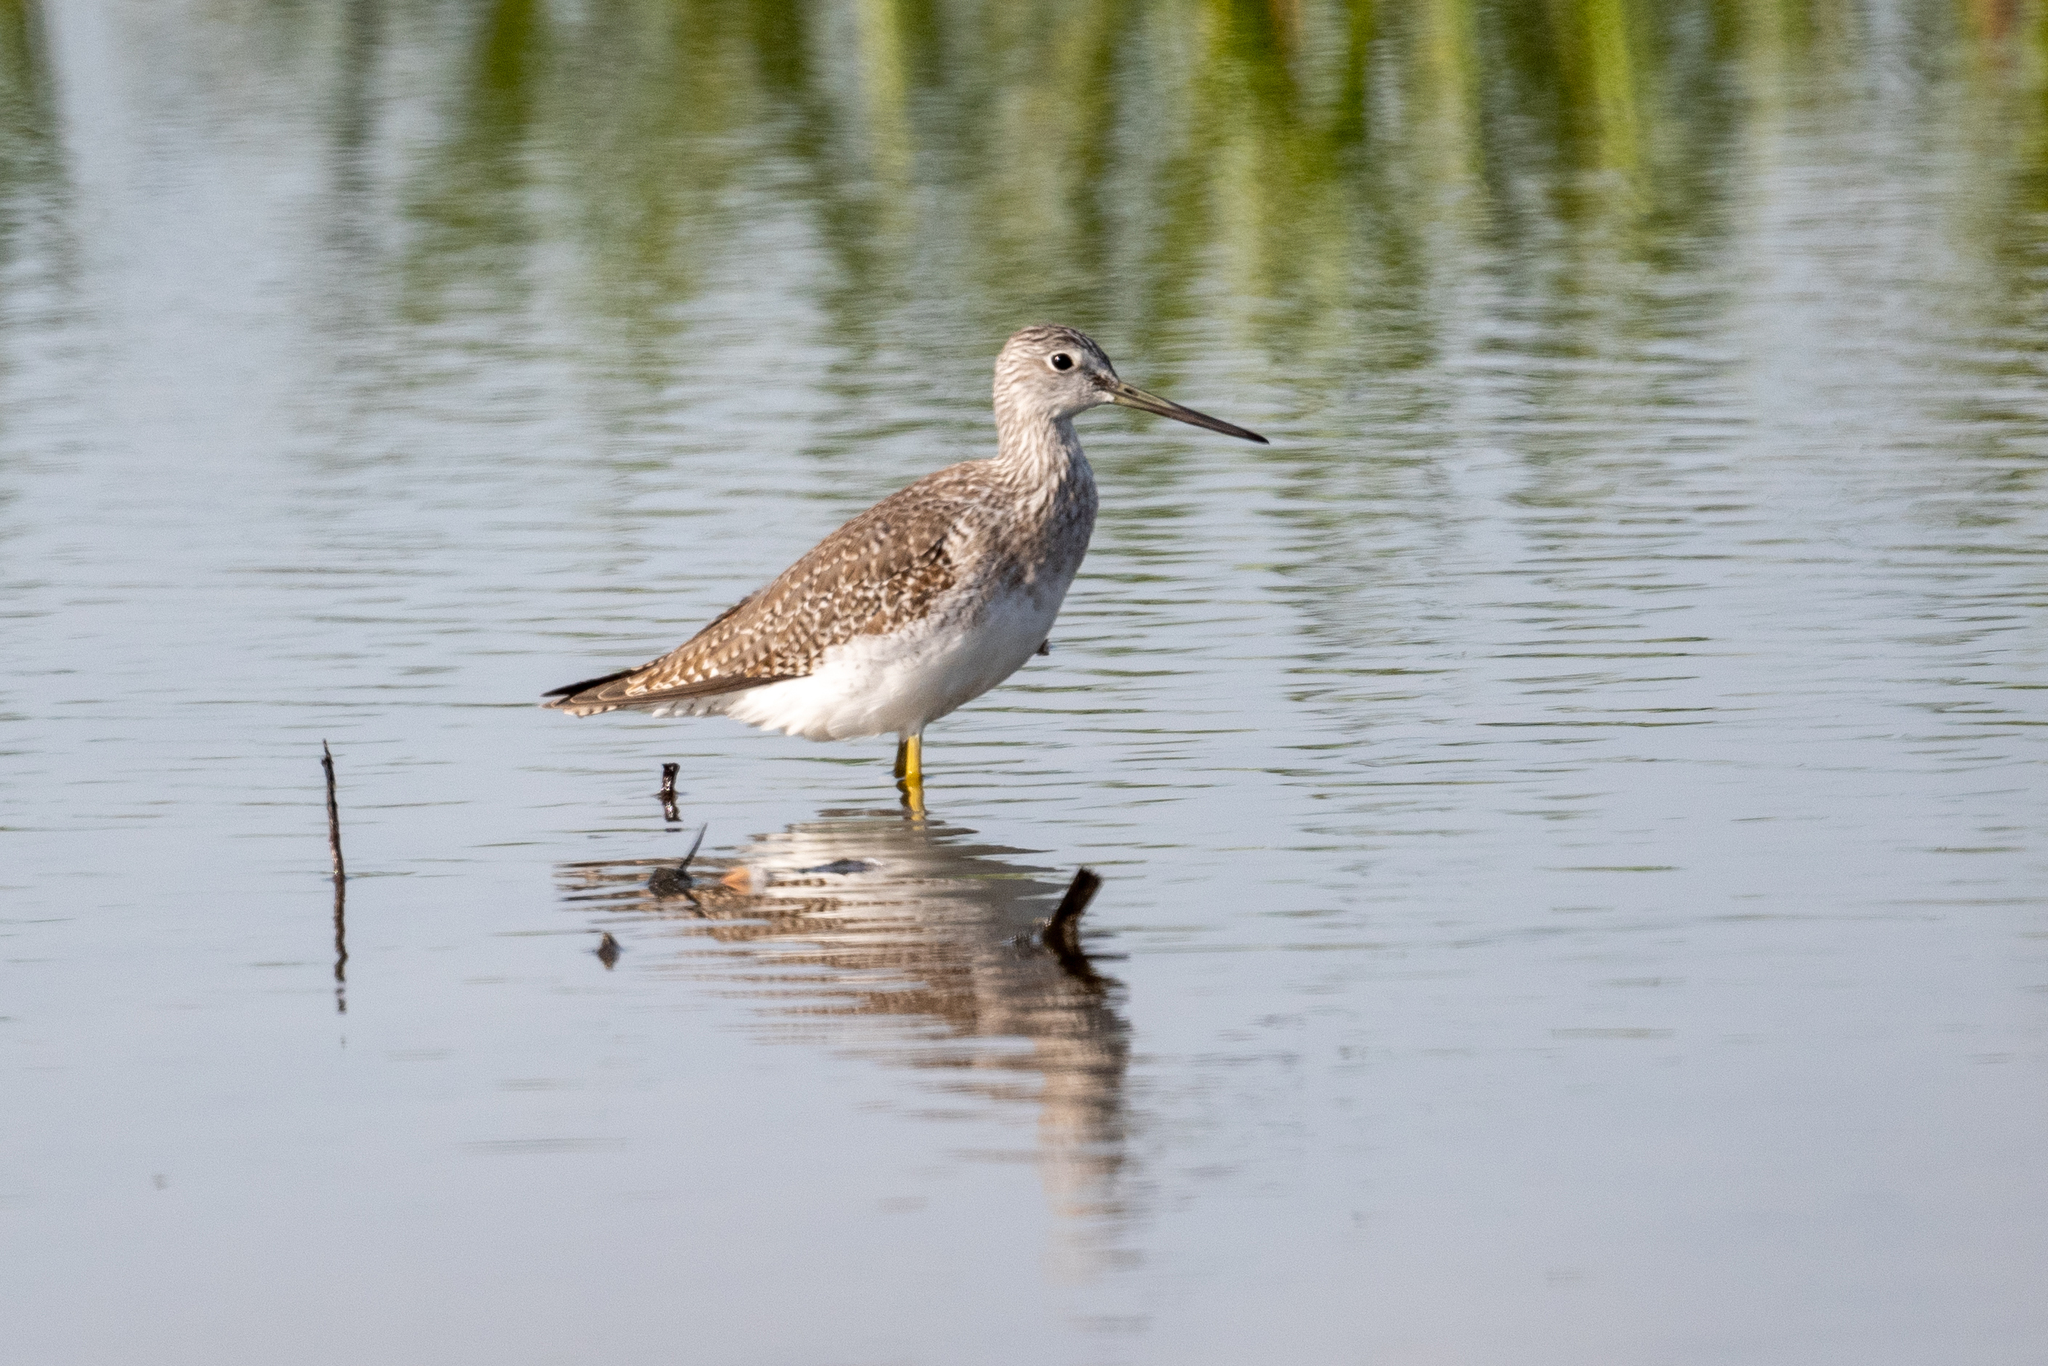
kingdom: Animalia
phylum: Chordata
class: Aves
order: Charadriiformes
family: Scolopacidae
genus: Tringa
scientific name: Tringa melanoleuca
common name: Greater yellowlegs
